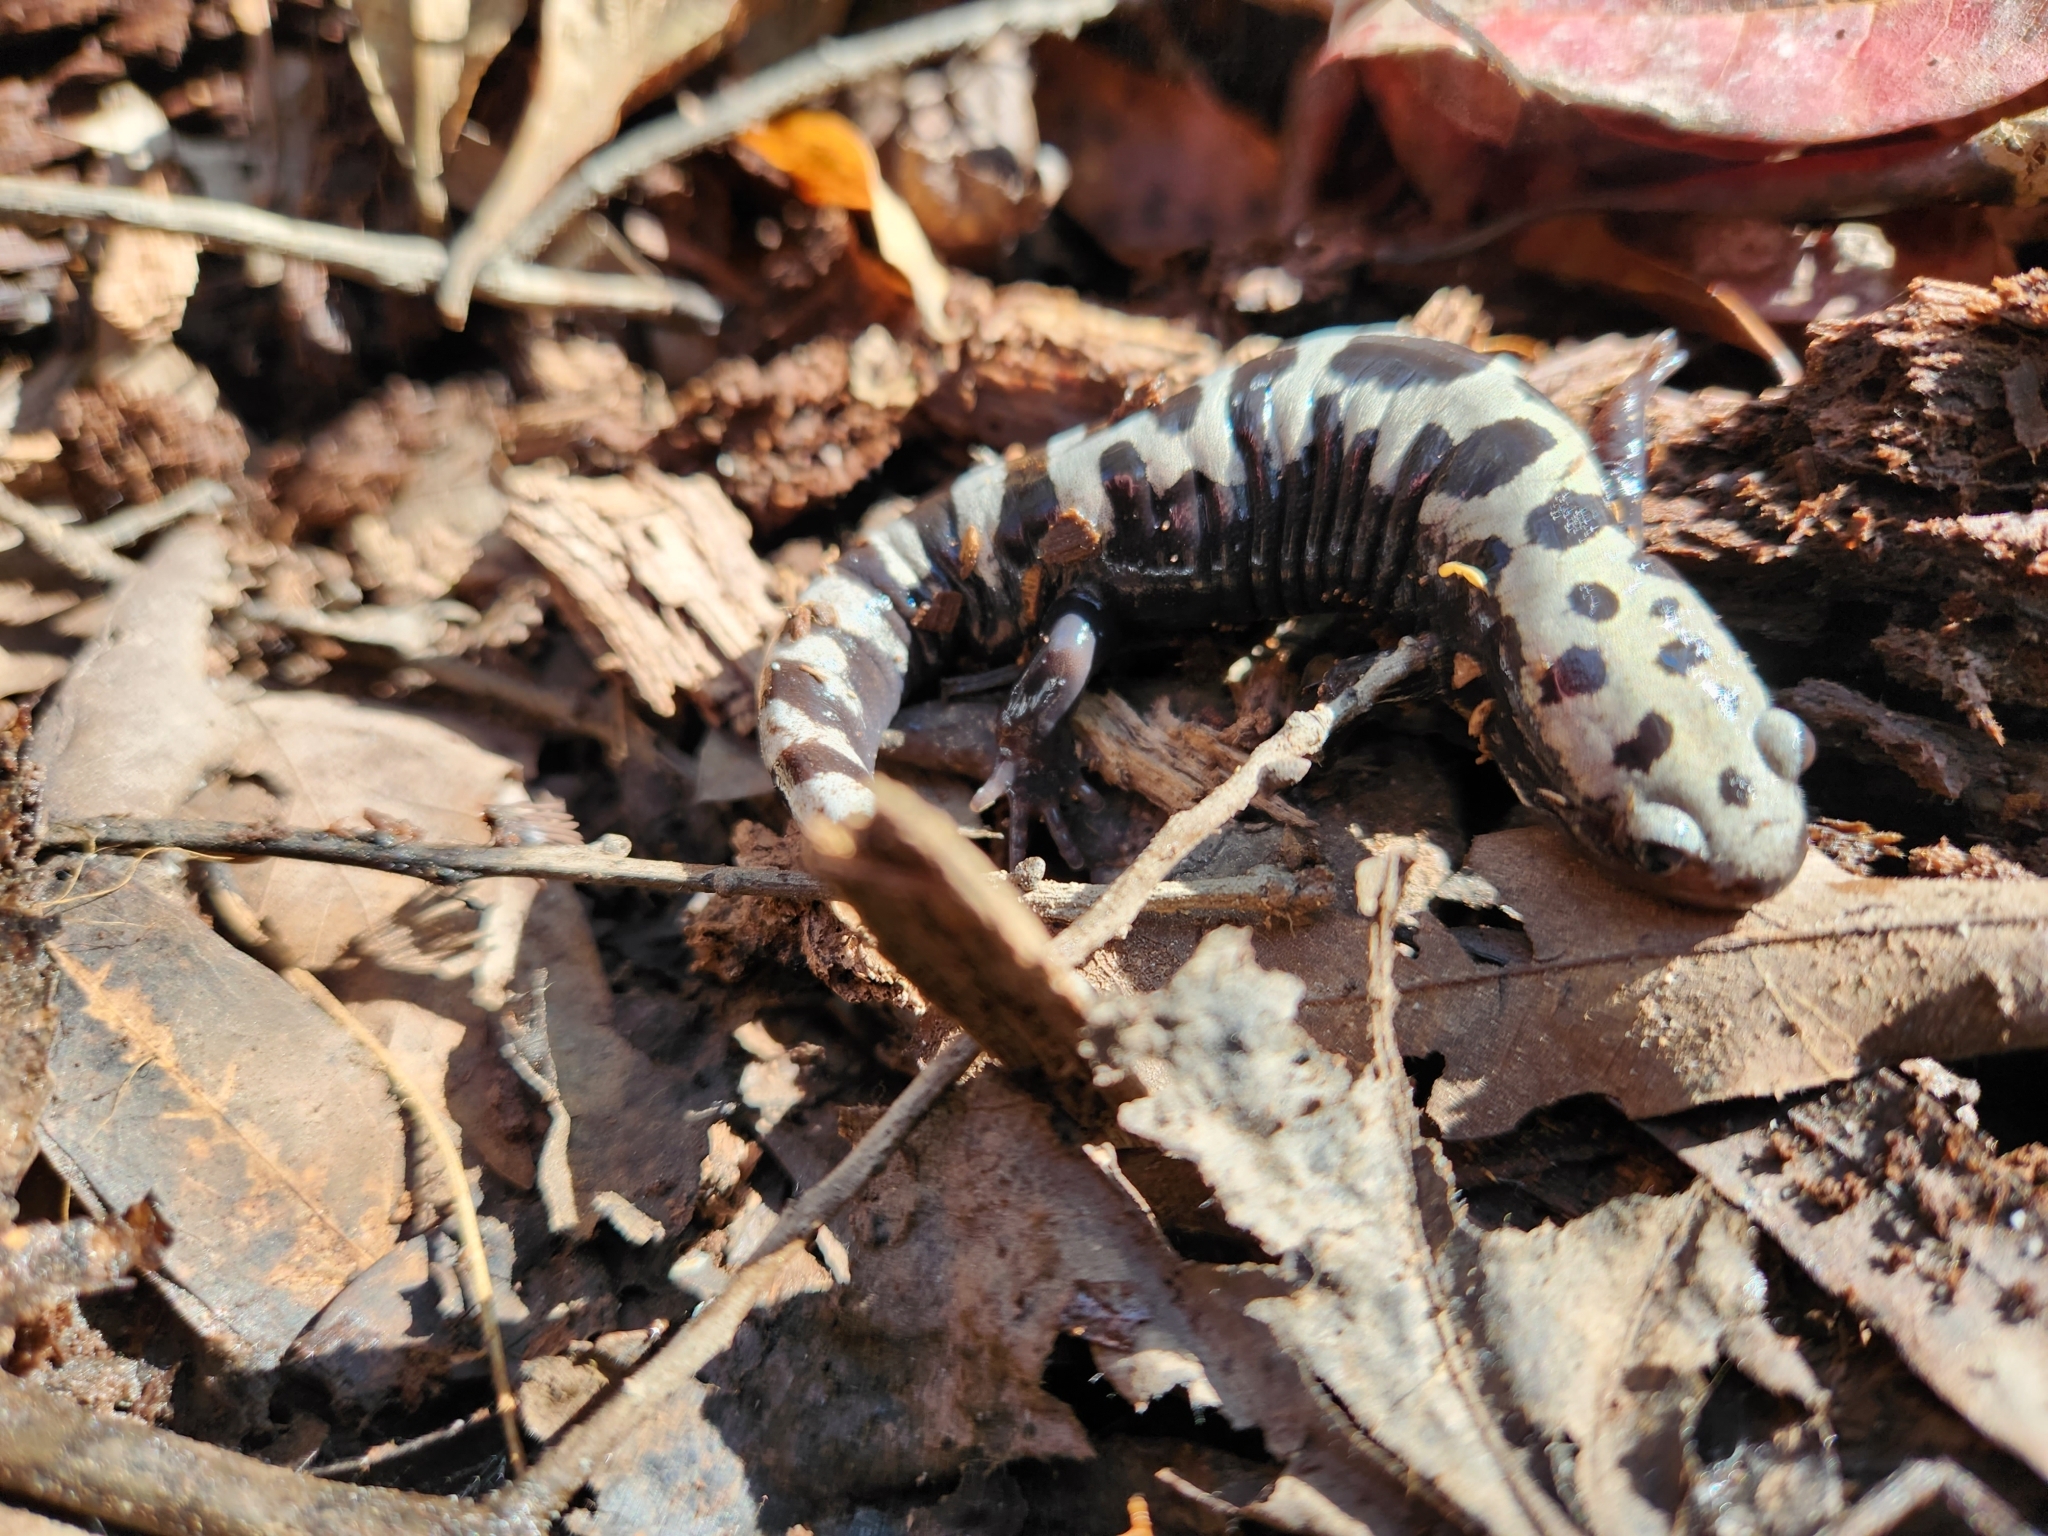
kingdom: Animalia
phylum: Chordata
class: Amphibia
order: Caudata
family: Ambystomatidae
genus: Ambystoma
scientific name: Ambystoma opacum
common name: Marbled salamander
